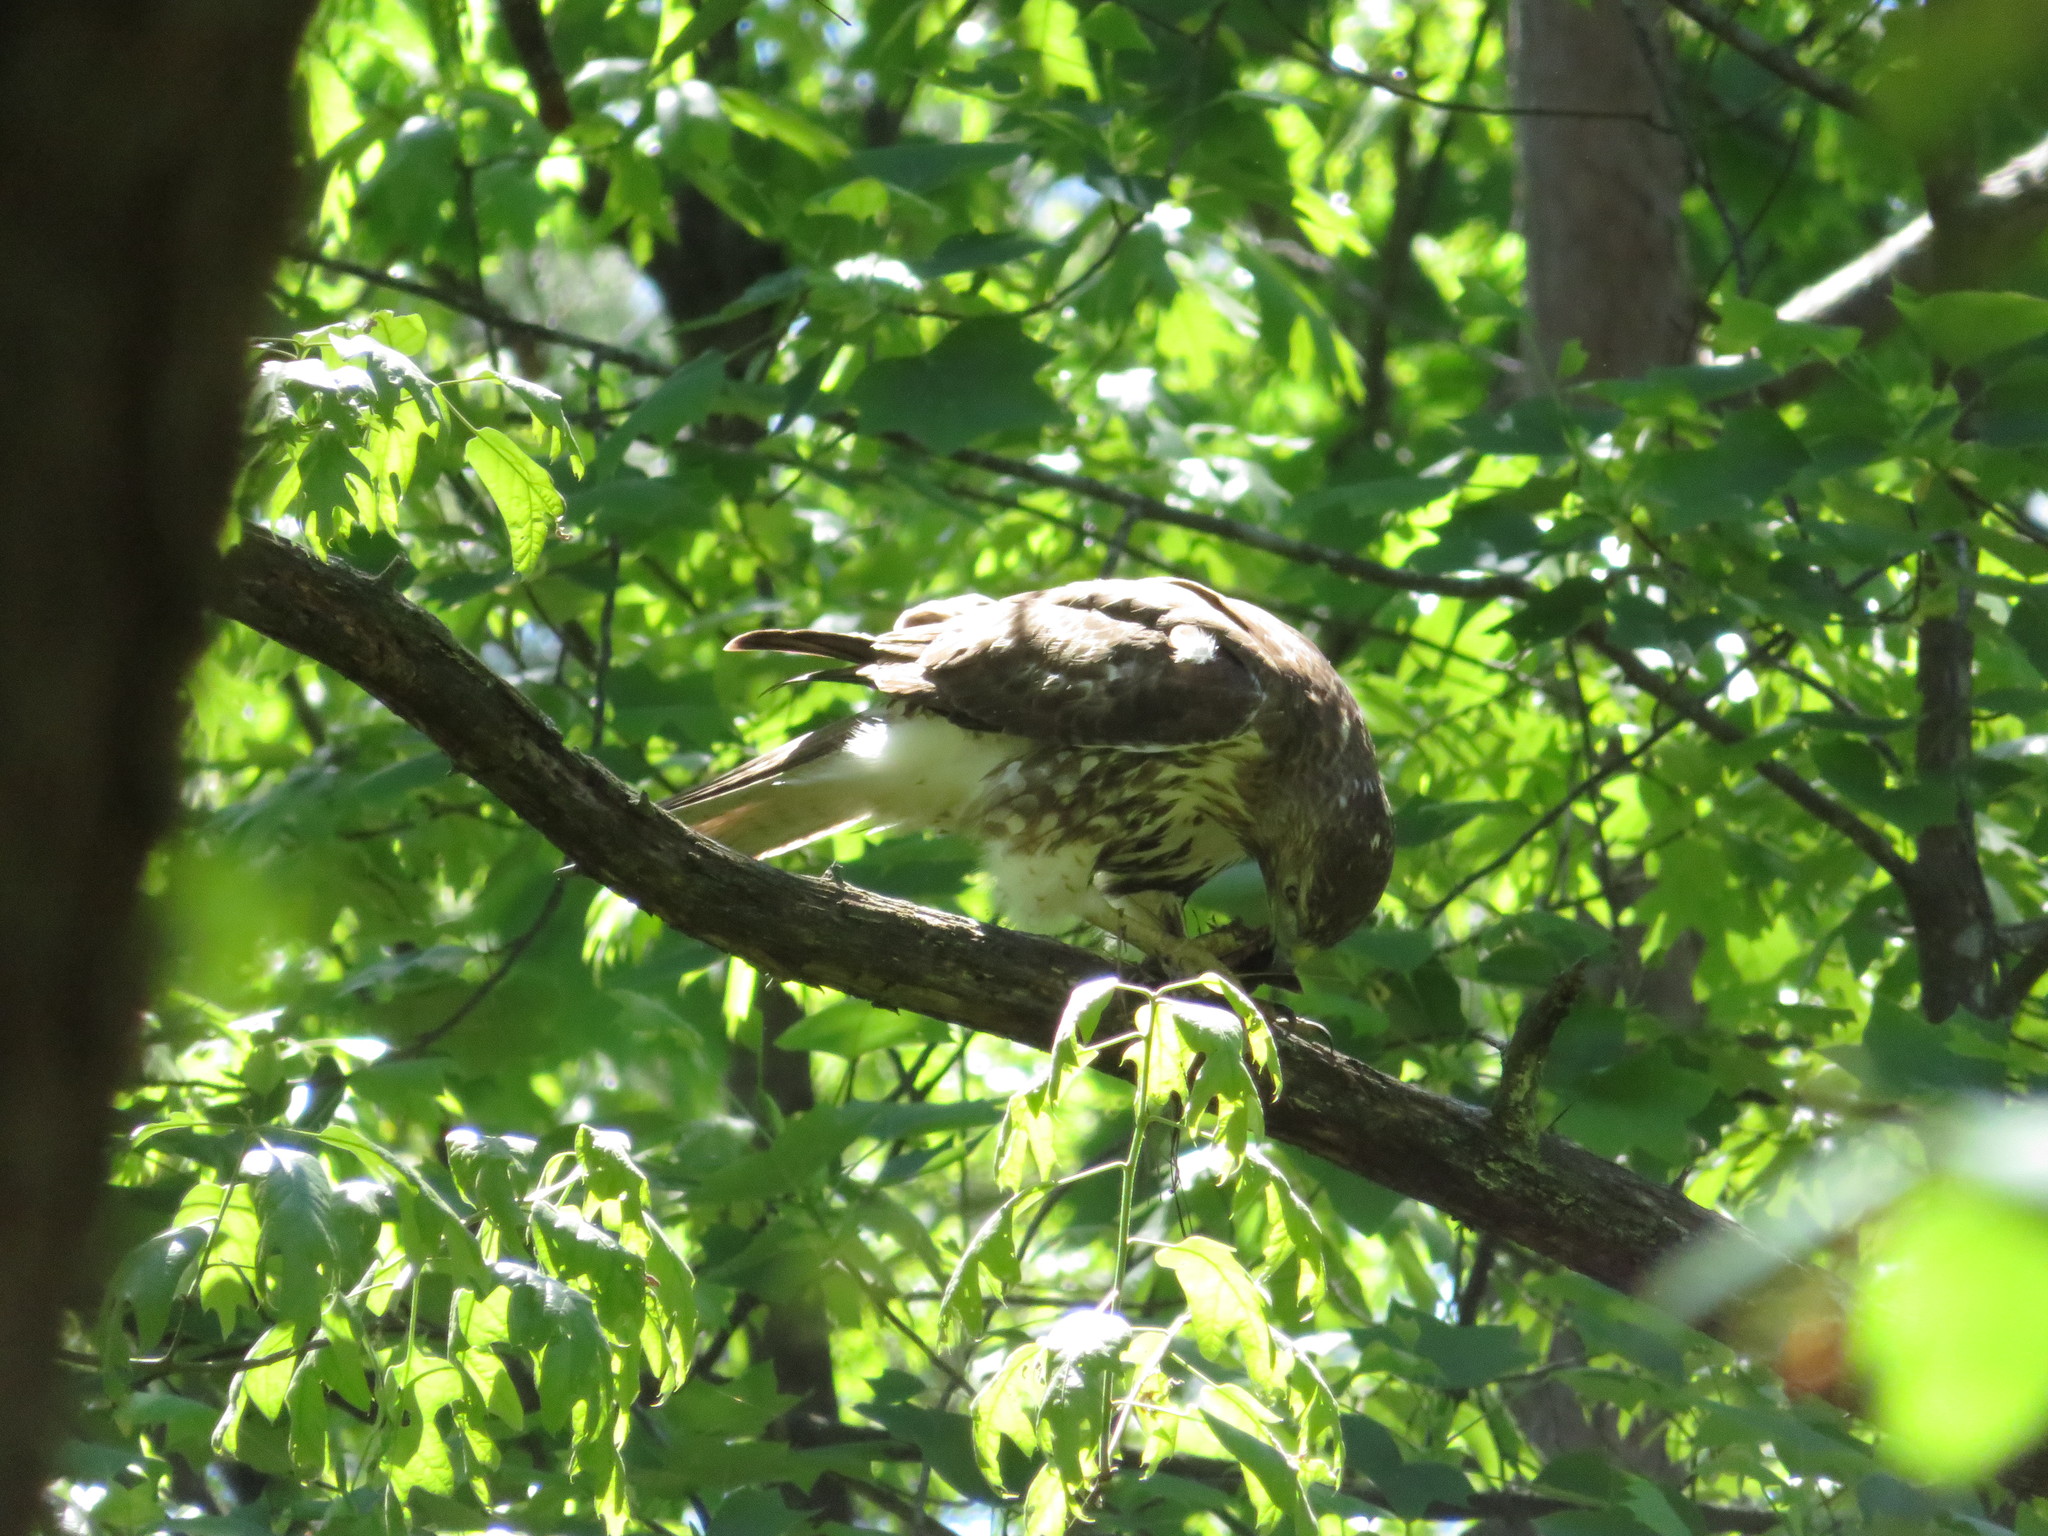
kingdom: Animalia
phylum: Chordata
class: Aves
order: Accipitriformes
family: Accipitridae
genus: Buteo
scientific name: Buteo jamaicensis
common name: Red-tailed hawk
